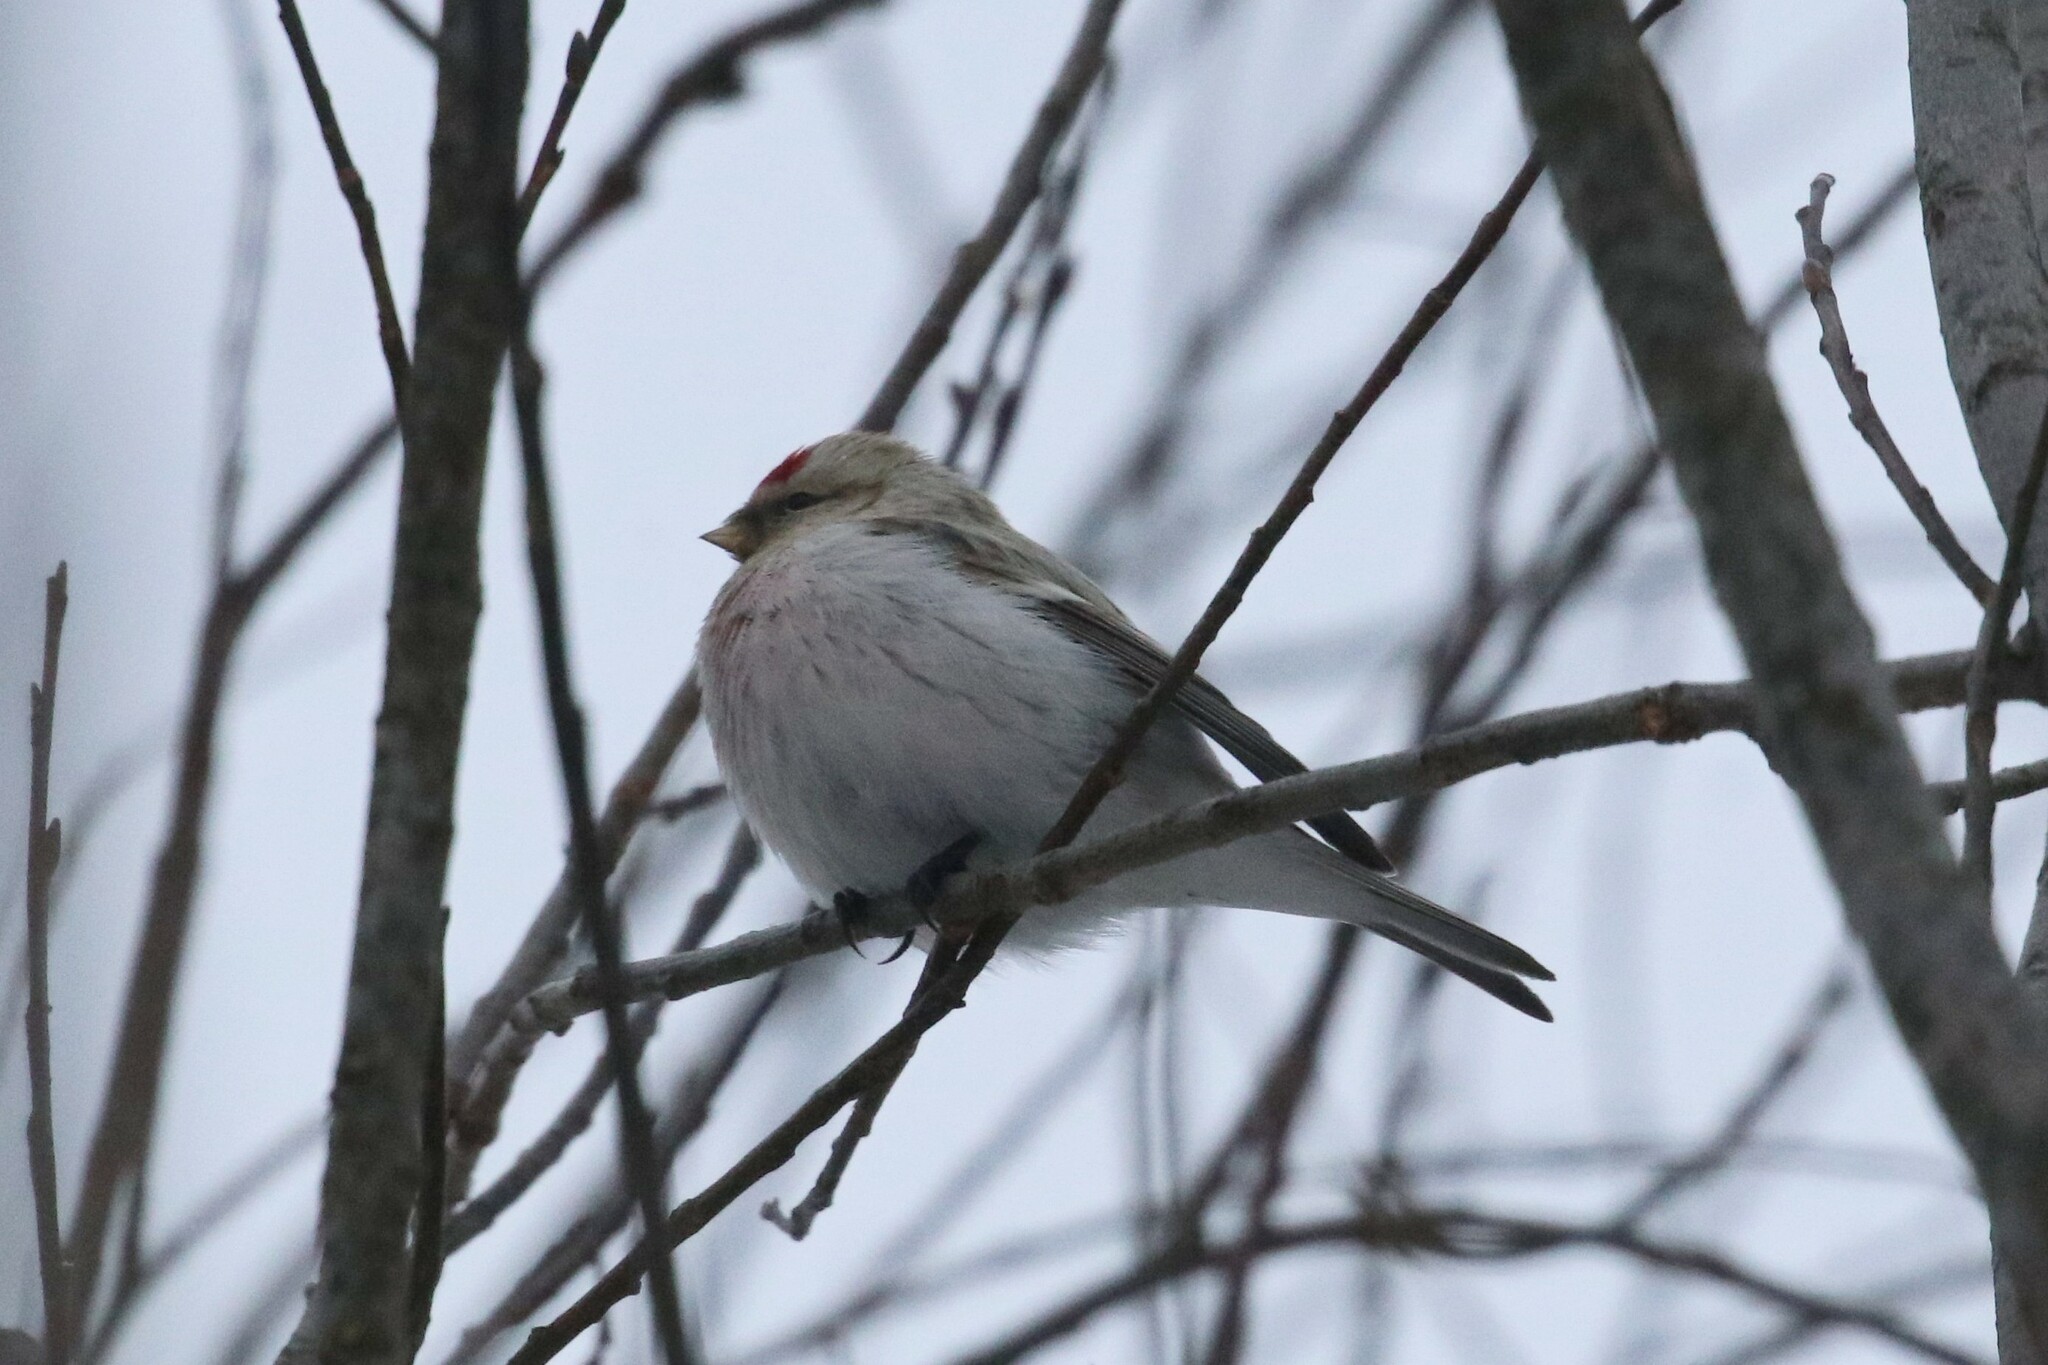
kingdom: Animalia
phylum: Chordata
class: Aves
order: Passeriformes
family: Fringillidae
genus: Acanthis
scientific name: Acanthis hornemanni
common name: Arctic redpoll
